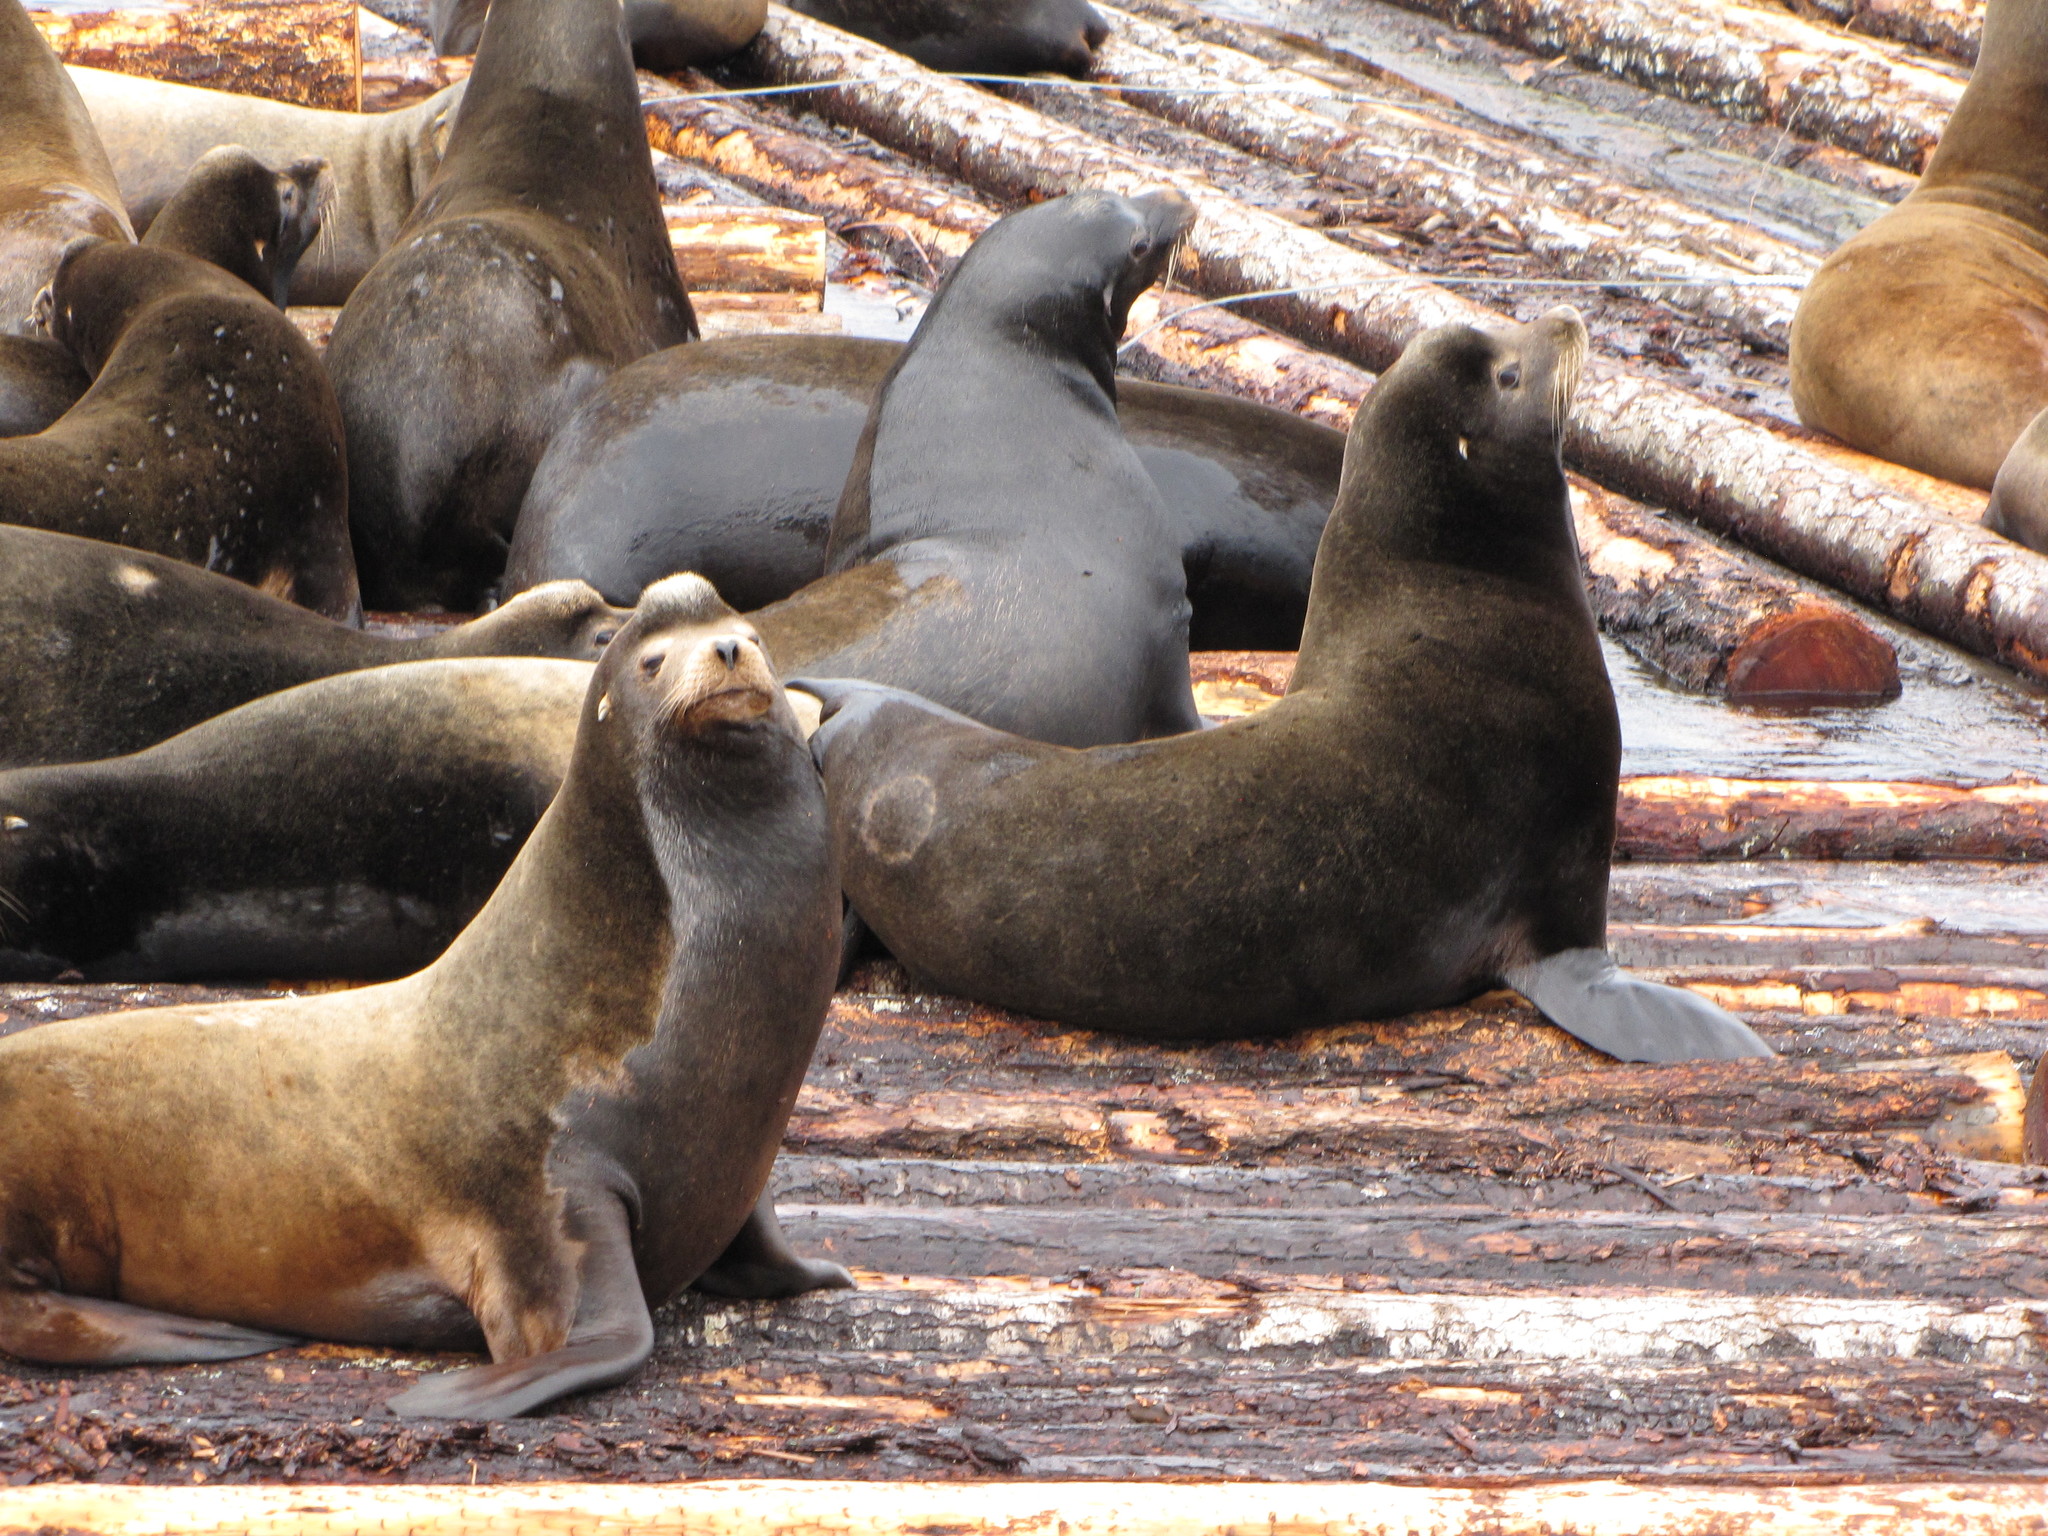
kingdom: Animalia
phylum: Chordata
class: Mammalia
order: Carnivora
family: Otariidae
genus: Zalophus
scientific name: Zalophus californianus
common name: California sea lion
